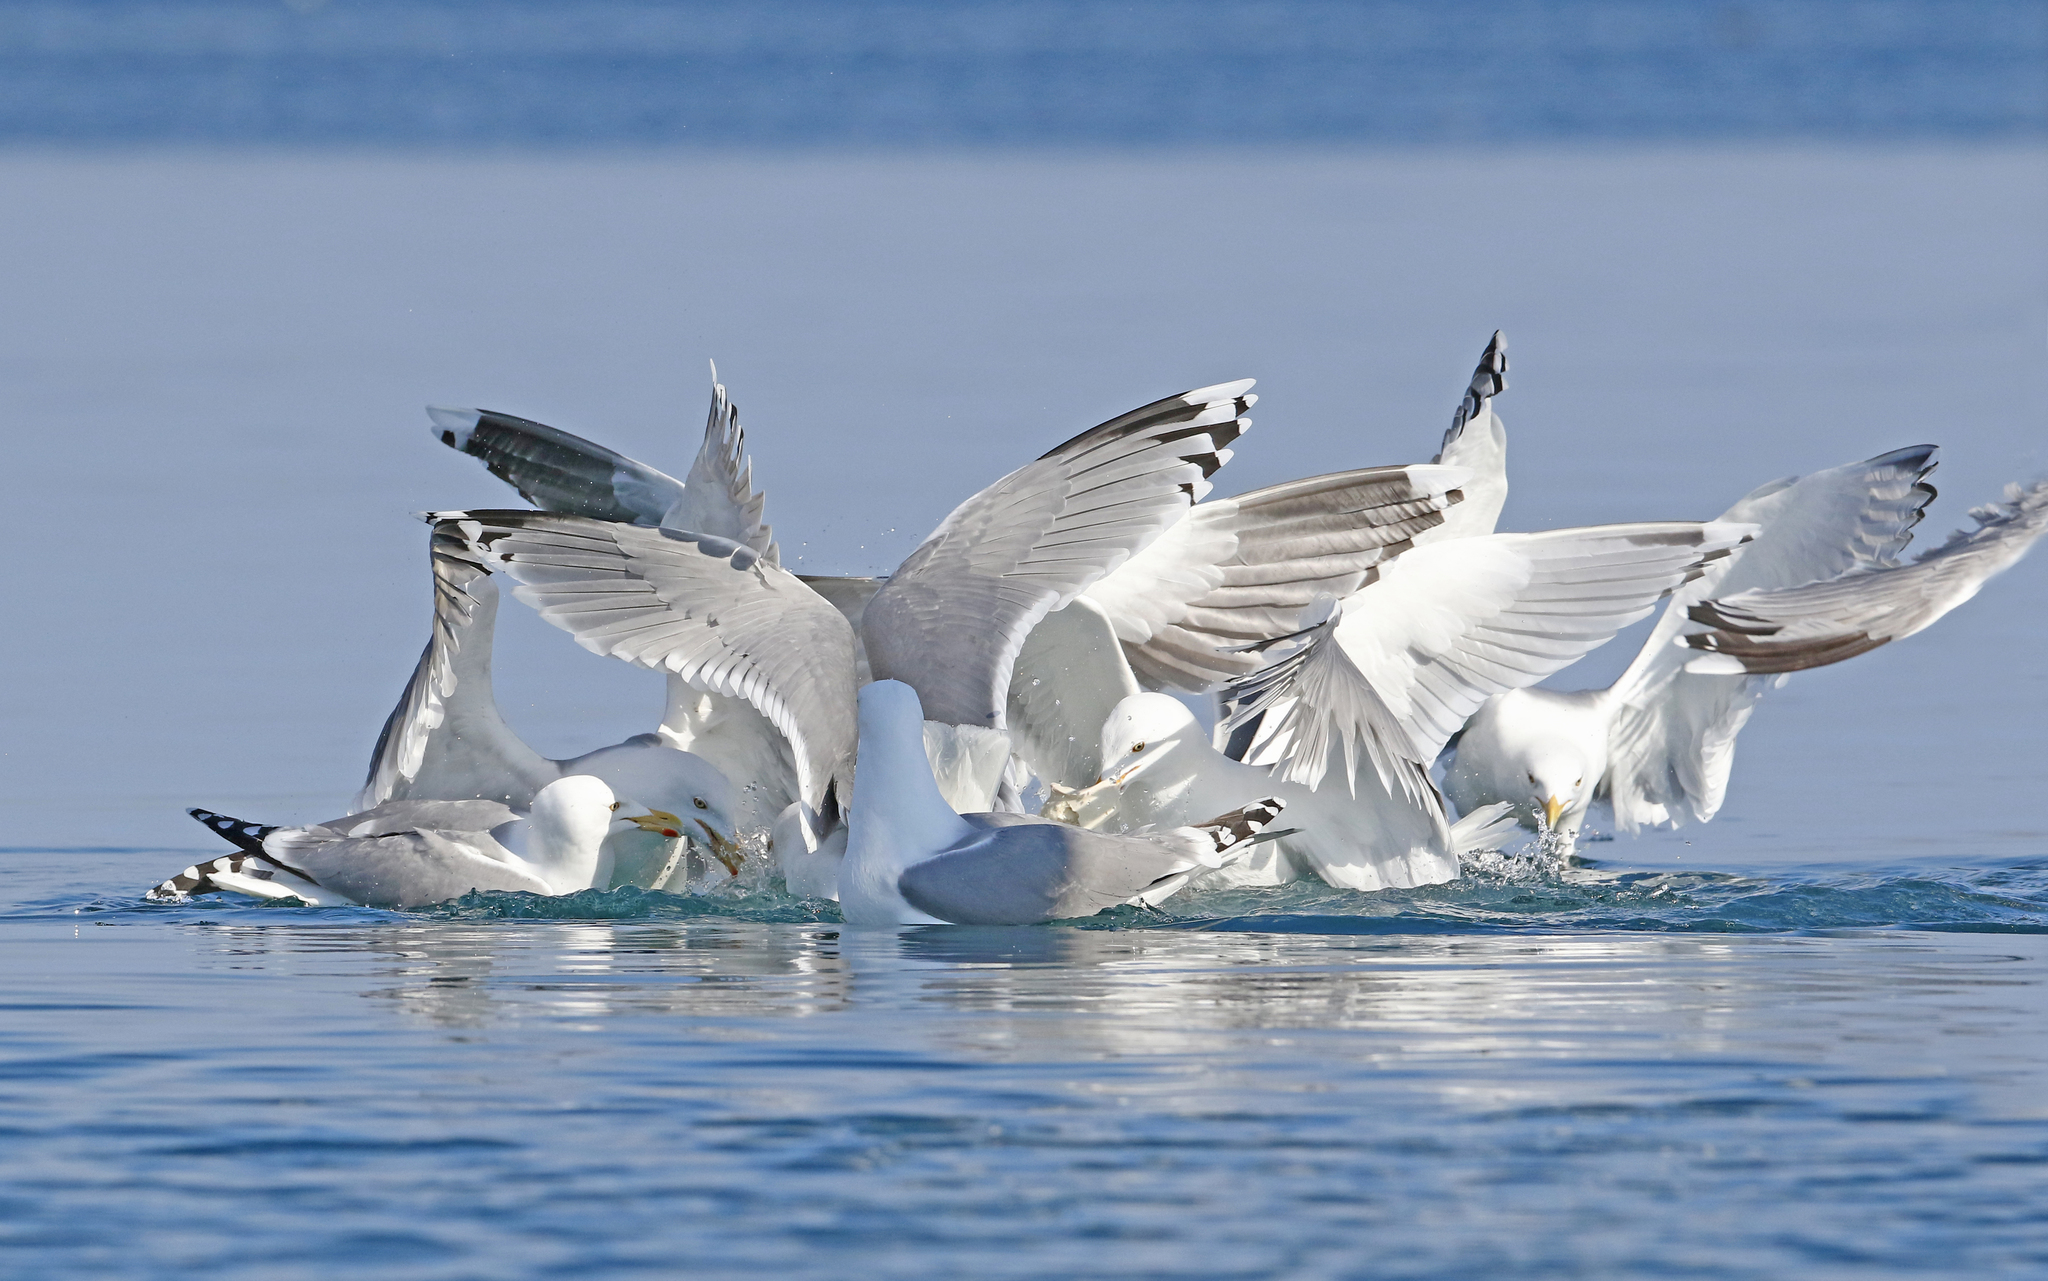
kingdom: Animalia
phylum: Chordata
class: Aves
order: Charadriiformes
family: Laridae
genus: Larus
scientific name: Larus argentatus
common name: Herring gull
